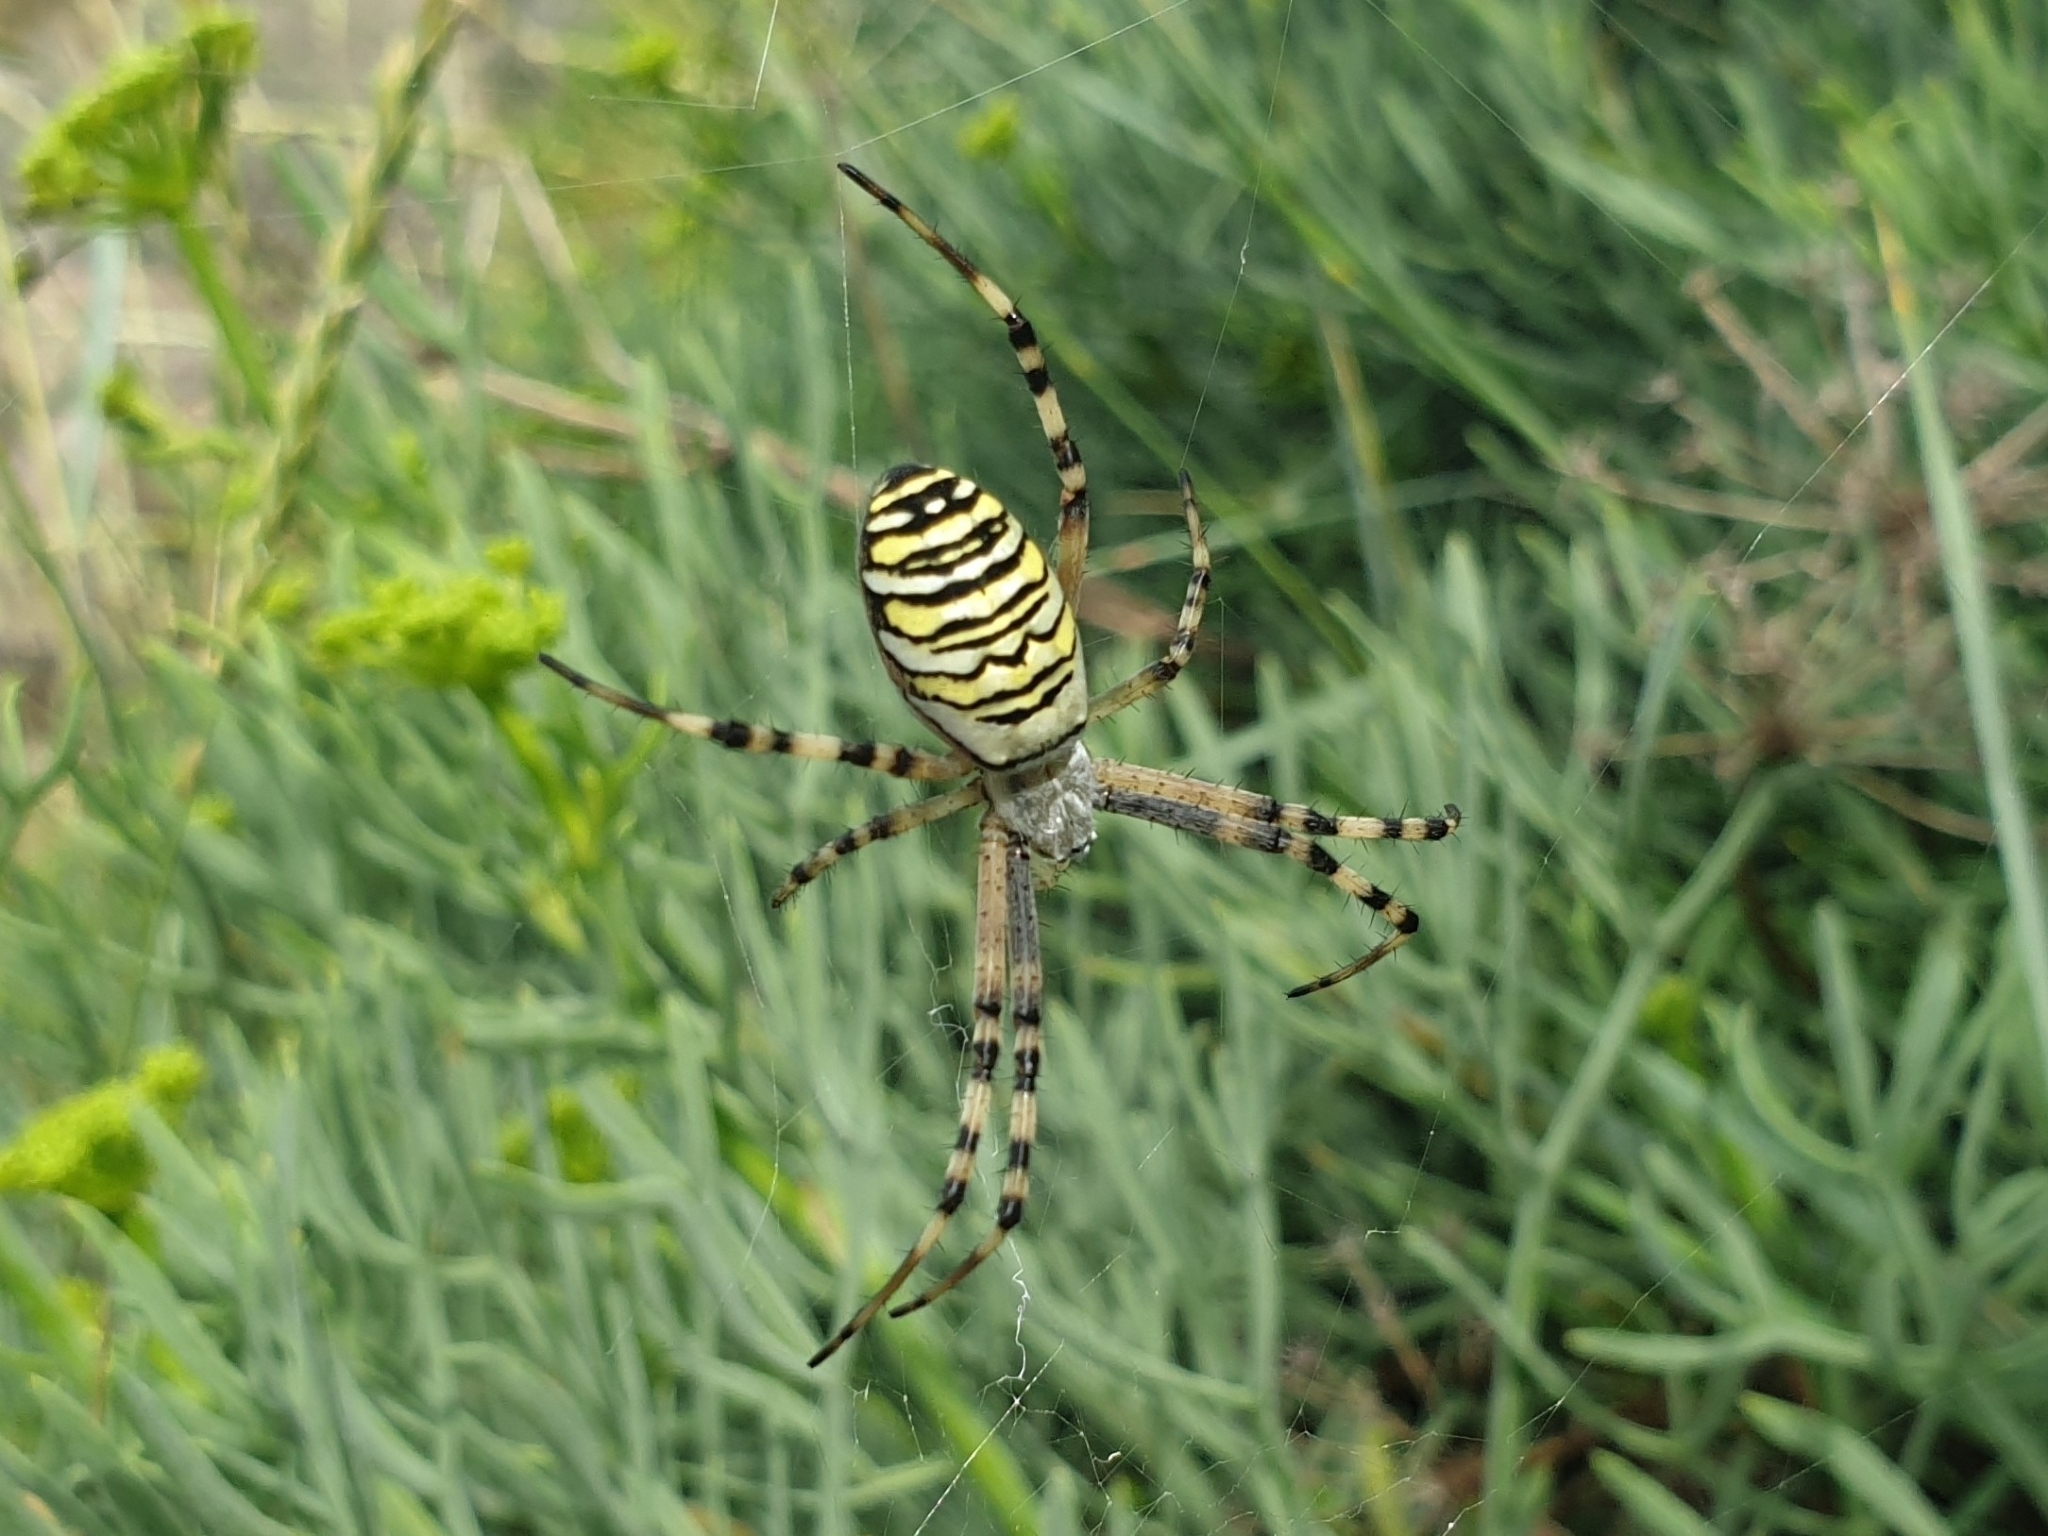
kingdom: Animalia
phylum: Arthropoda
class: Arachnida
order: Araneae
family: Araneidae
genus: Argiope
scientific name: Argiope bruennichi
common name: Wasp spider
